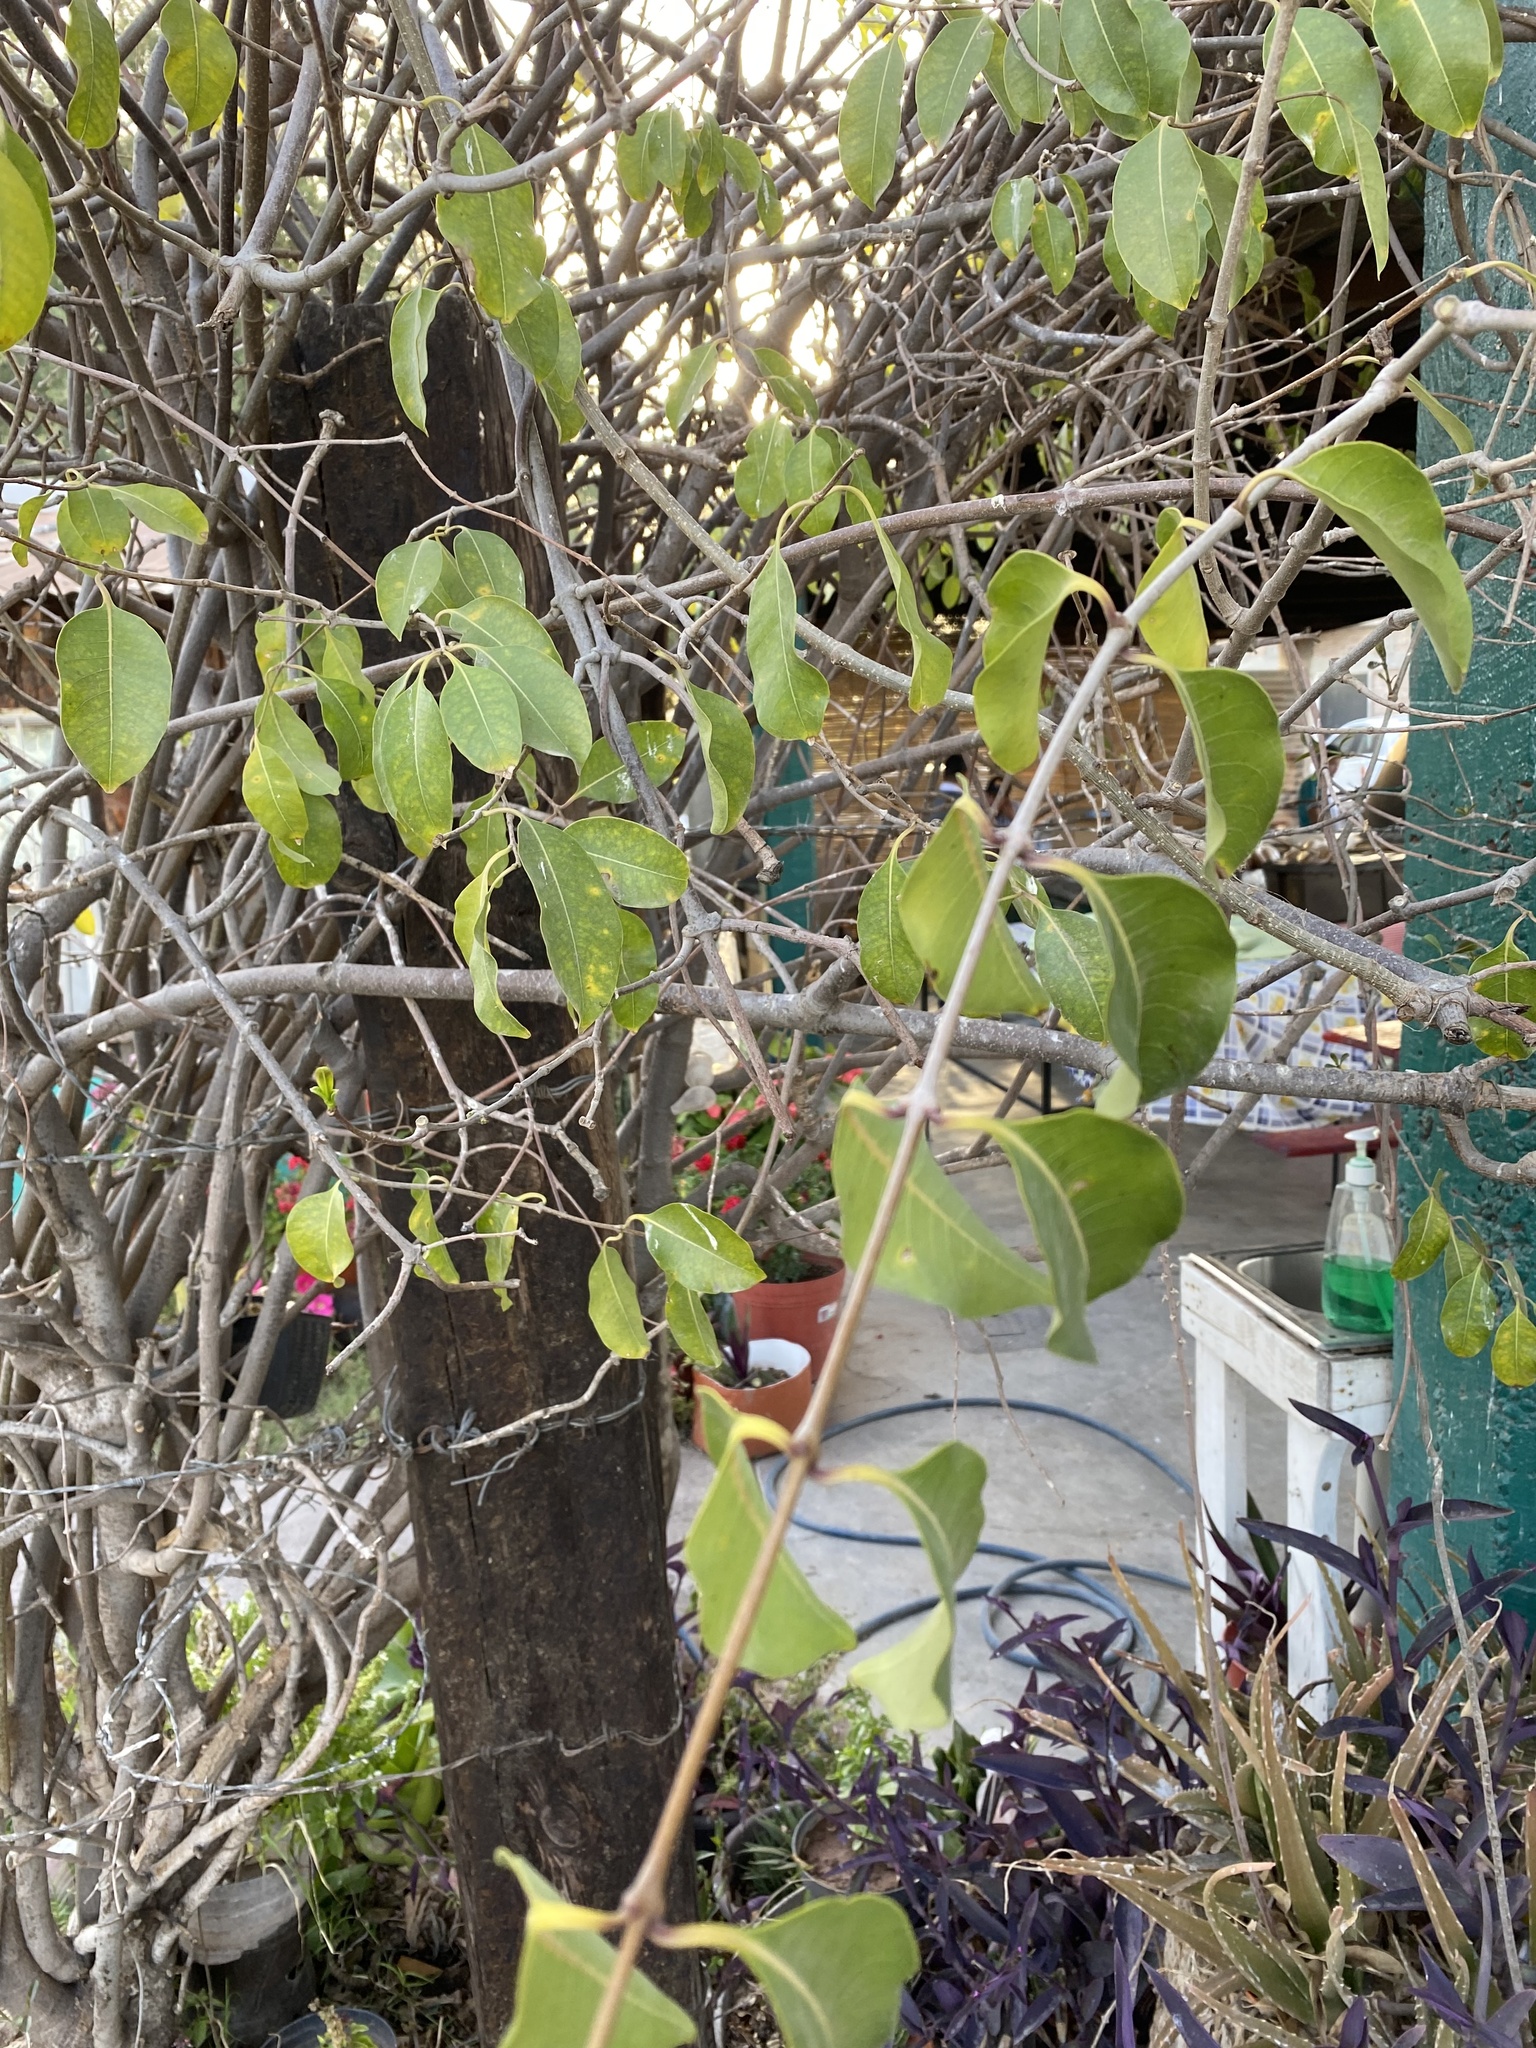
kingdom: Plantae
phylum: Tracheophyta
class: Magnoliopsida
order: Gentianales
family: Apocynaceae
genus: Cryptostegia
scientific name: Cryptostegia grandiflora
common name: Palay rubbervine
